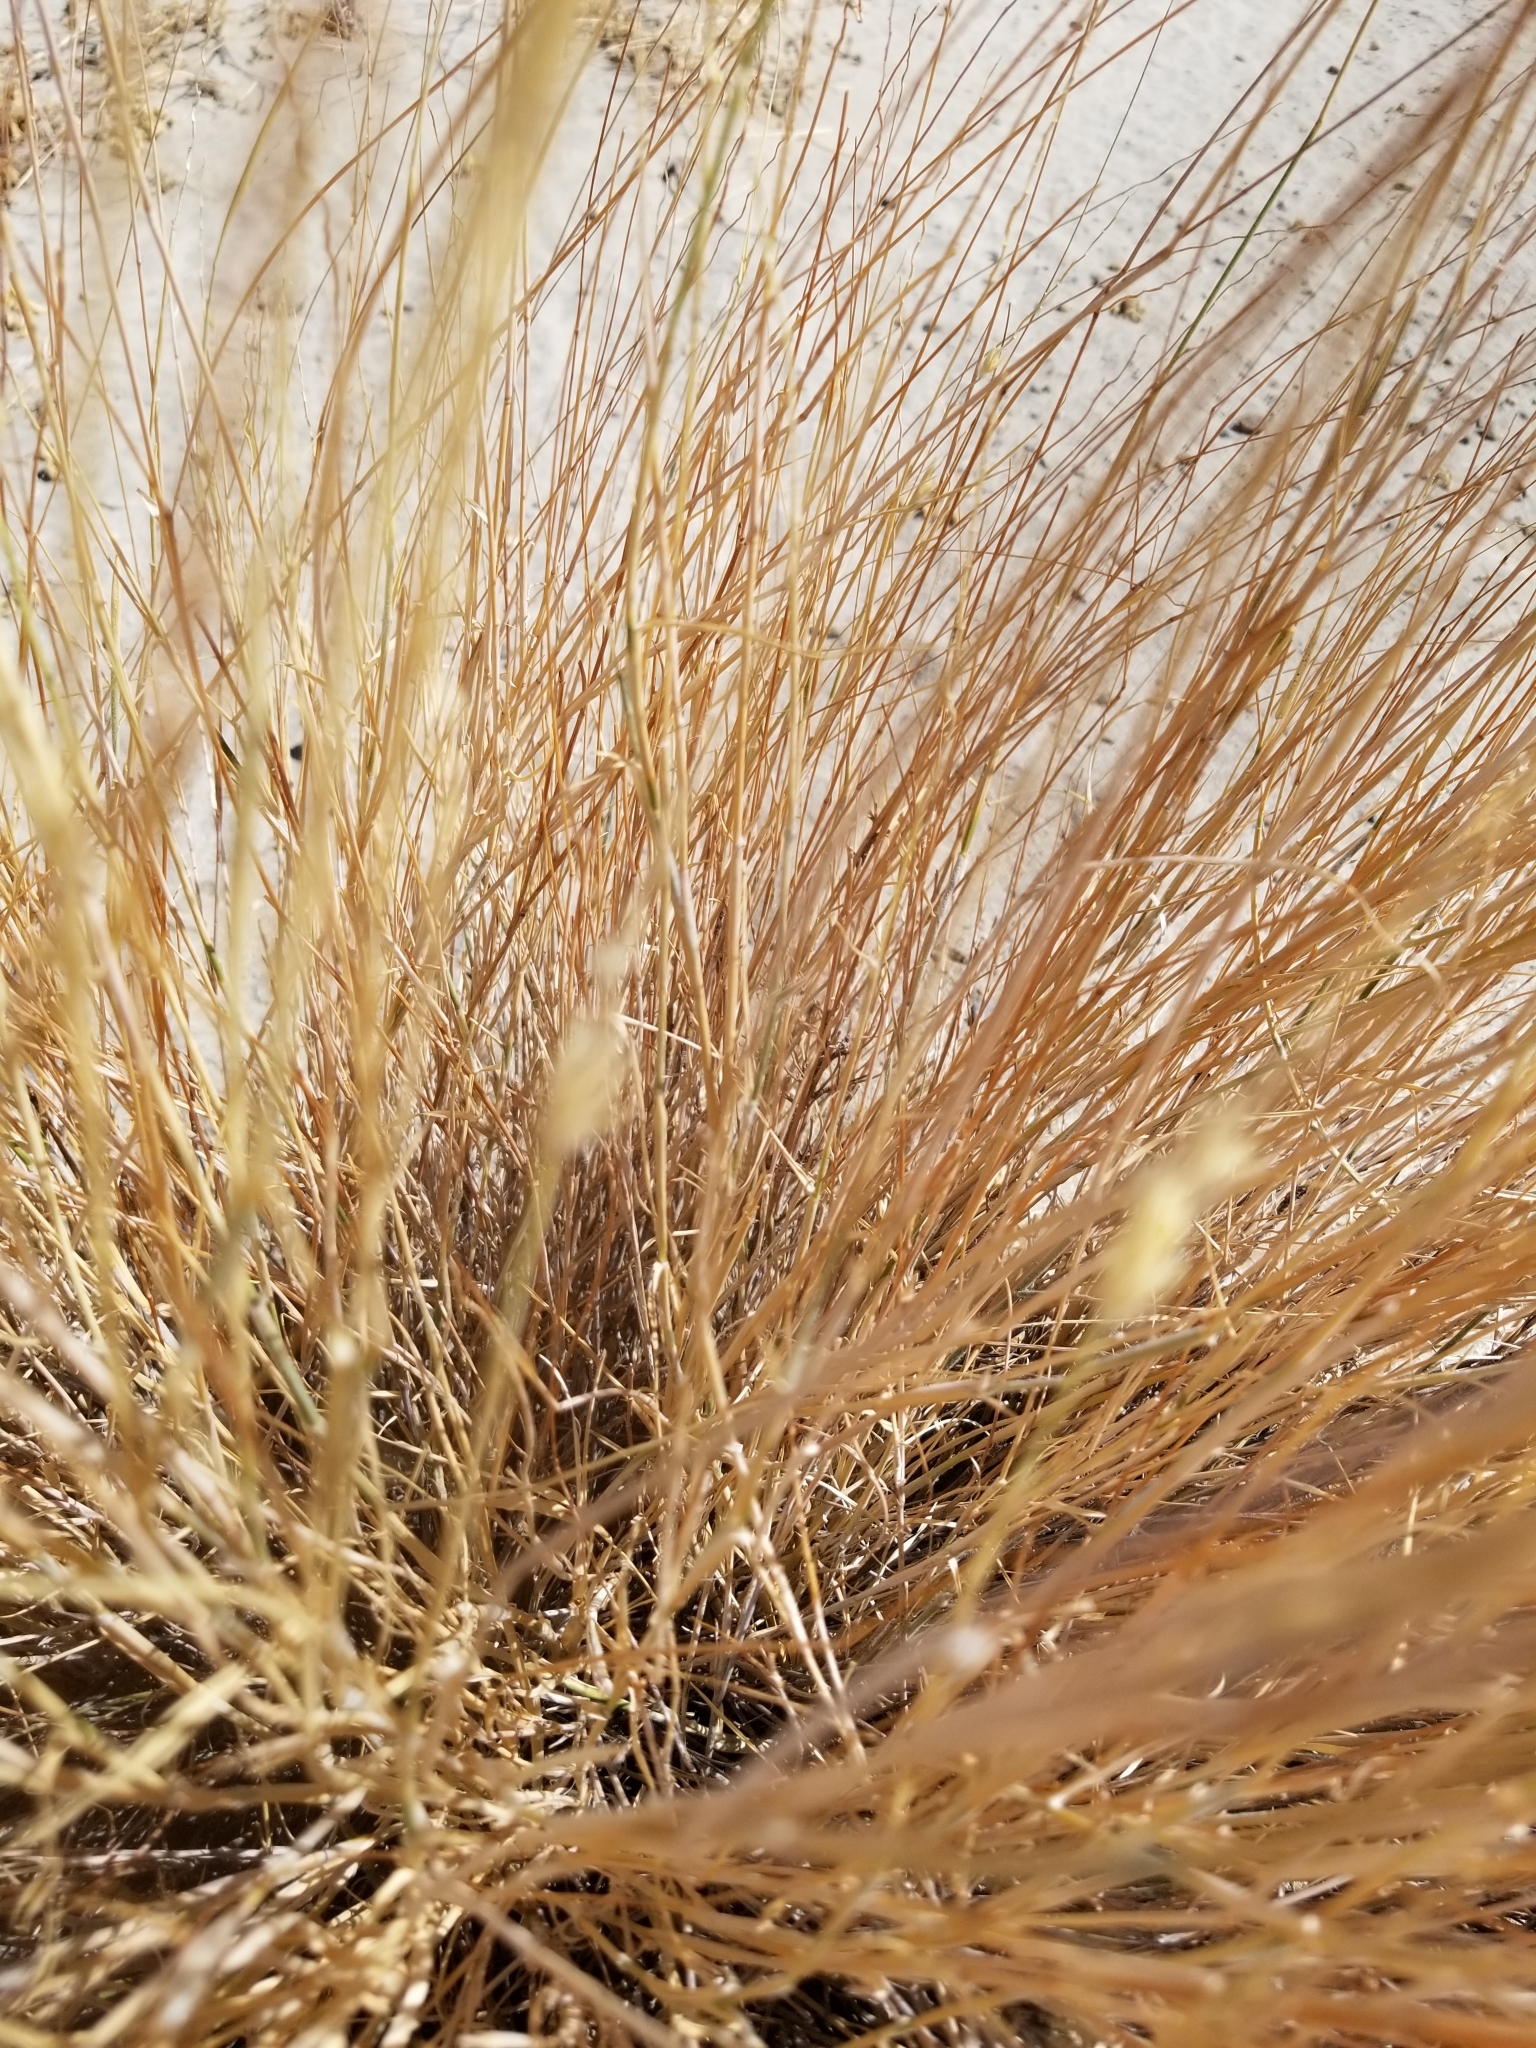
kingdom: Plantae
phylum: Tracheophyta
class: Liliopsida
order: Poales
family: Poaceae
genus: Hilaria
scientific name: Hilaria rigida
